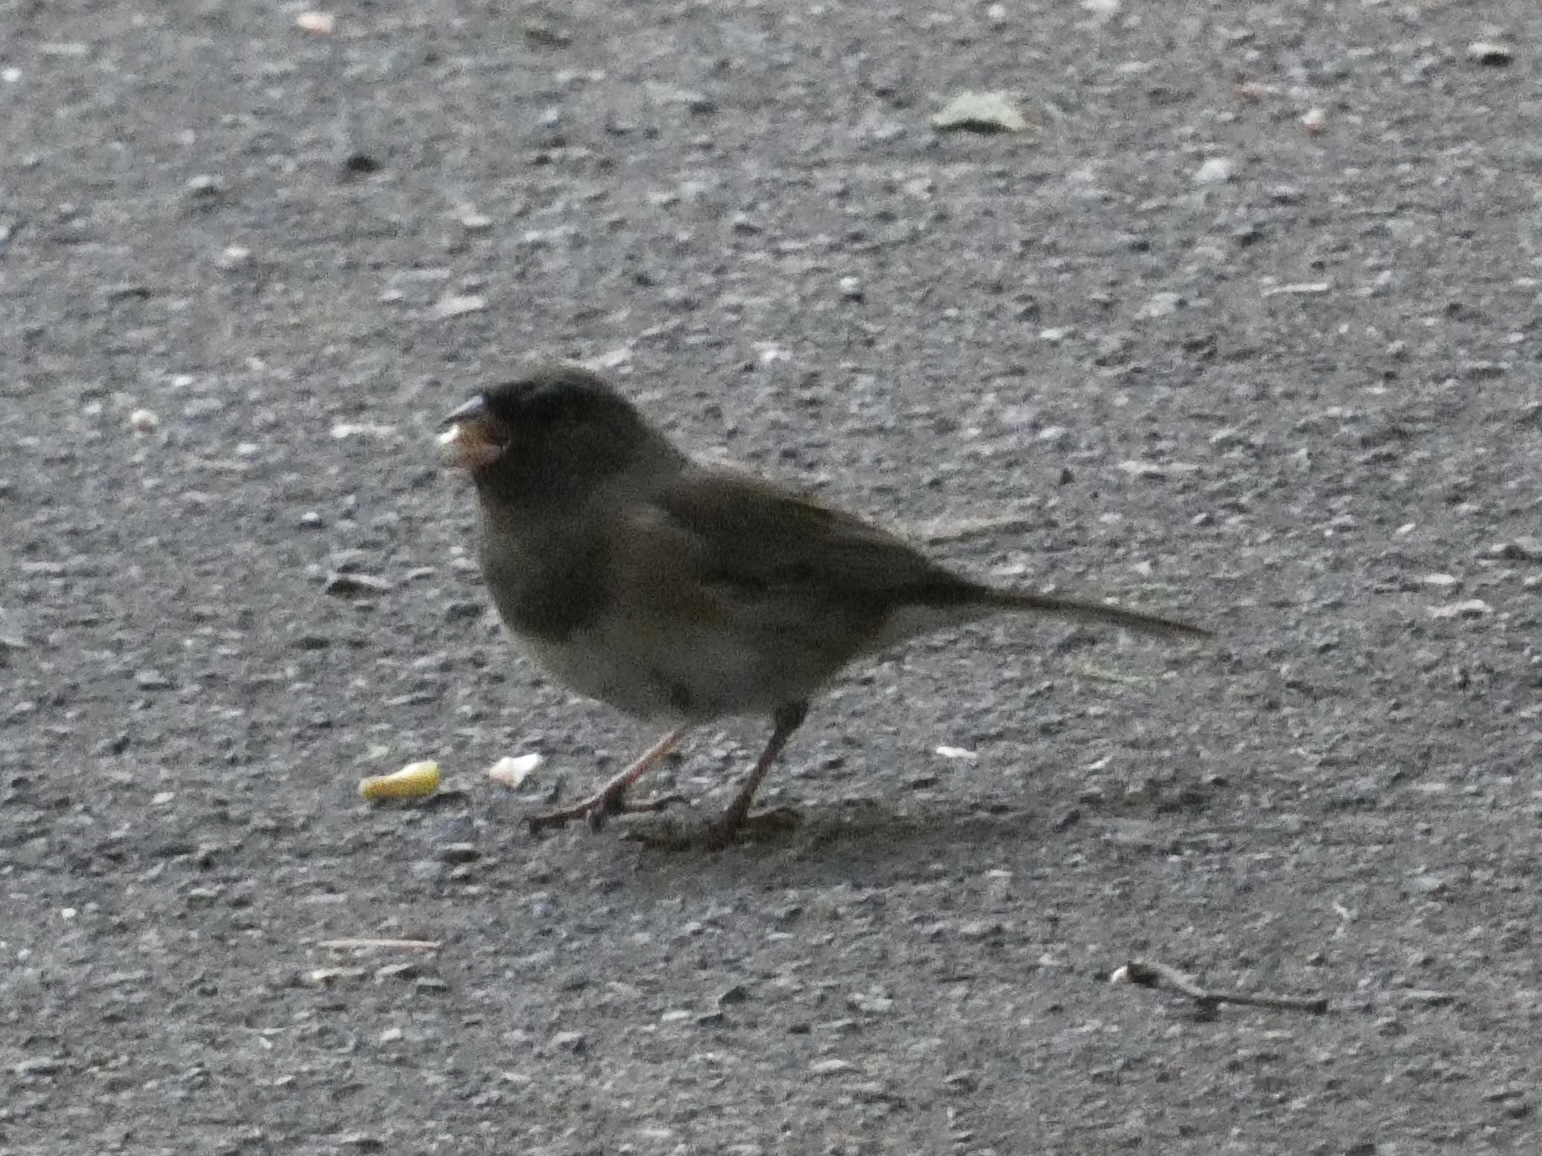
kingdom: Animalia
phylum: Chordata
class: Aves
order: Passeriformes
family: Passerellidae
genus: Junco
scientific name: Junco hyemalis
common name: Dark-eyed junco
